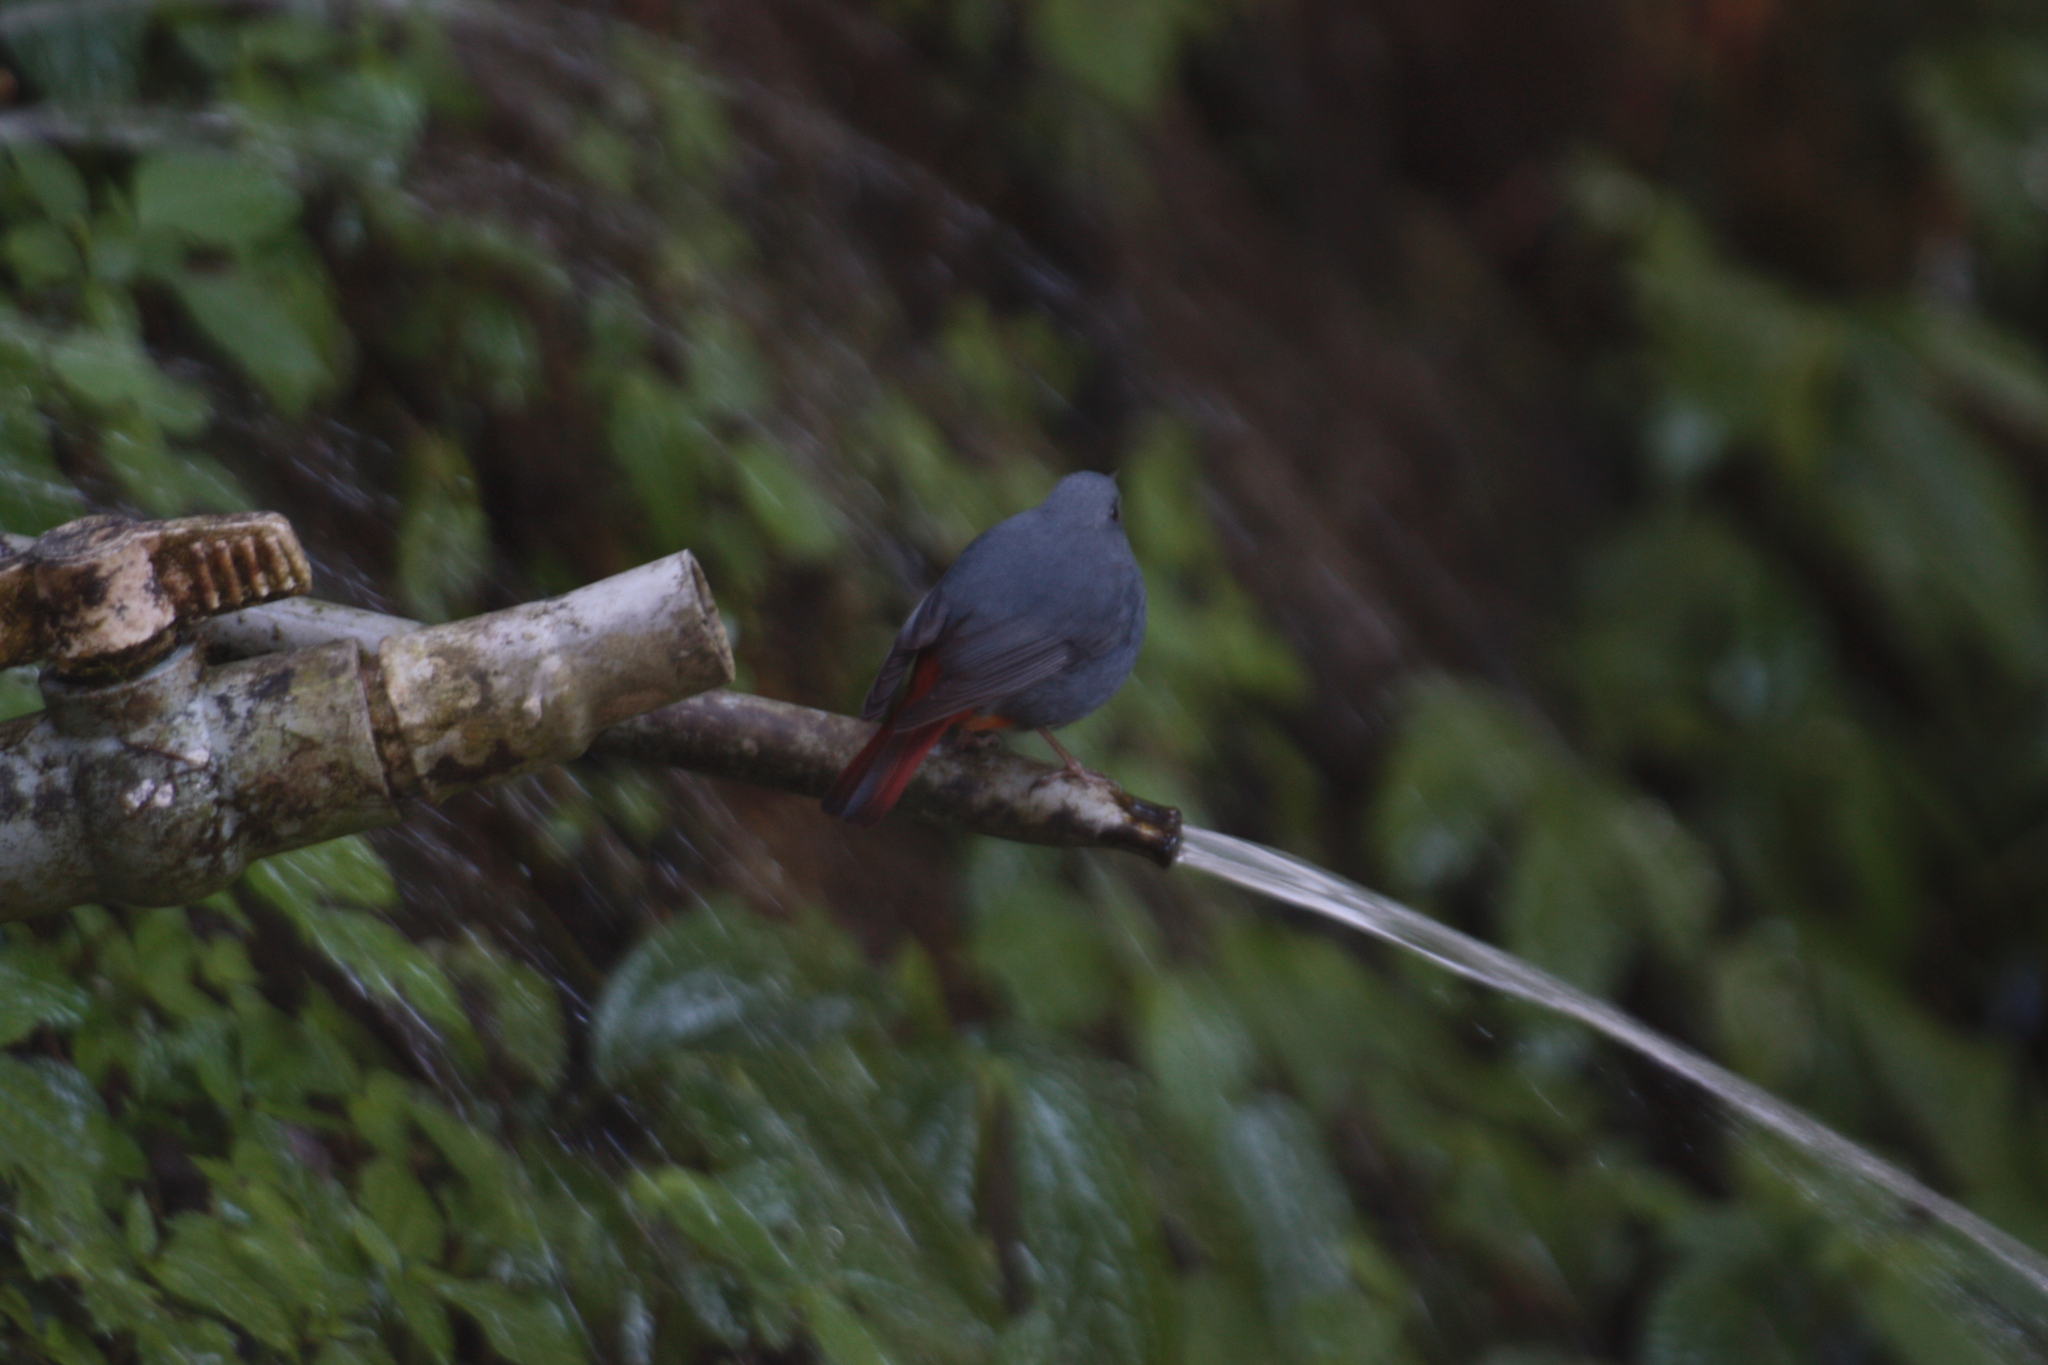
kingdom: Animalia
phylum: Chordata
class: Aves
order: Passeriformes
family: Muscicapidae
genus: Rhyacornis
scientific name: Rhyacornis fuliginosa
